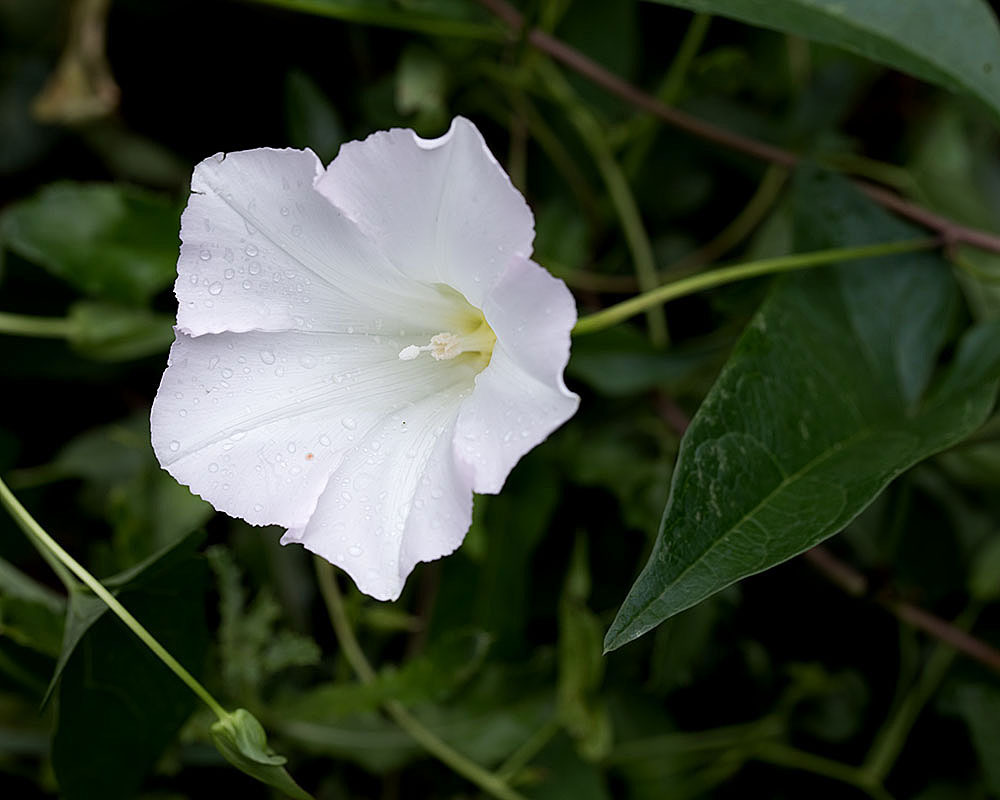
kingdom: Plantae
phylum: Tracheophyta
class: Magnoliopsida
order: Solanales
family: Convolvulaceae
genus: Calystegia
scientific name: Calystegia sepium
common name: Hedge bindweed
